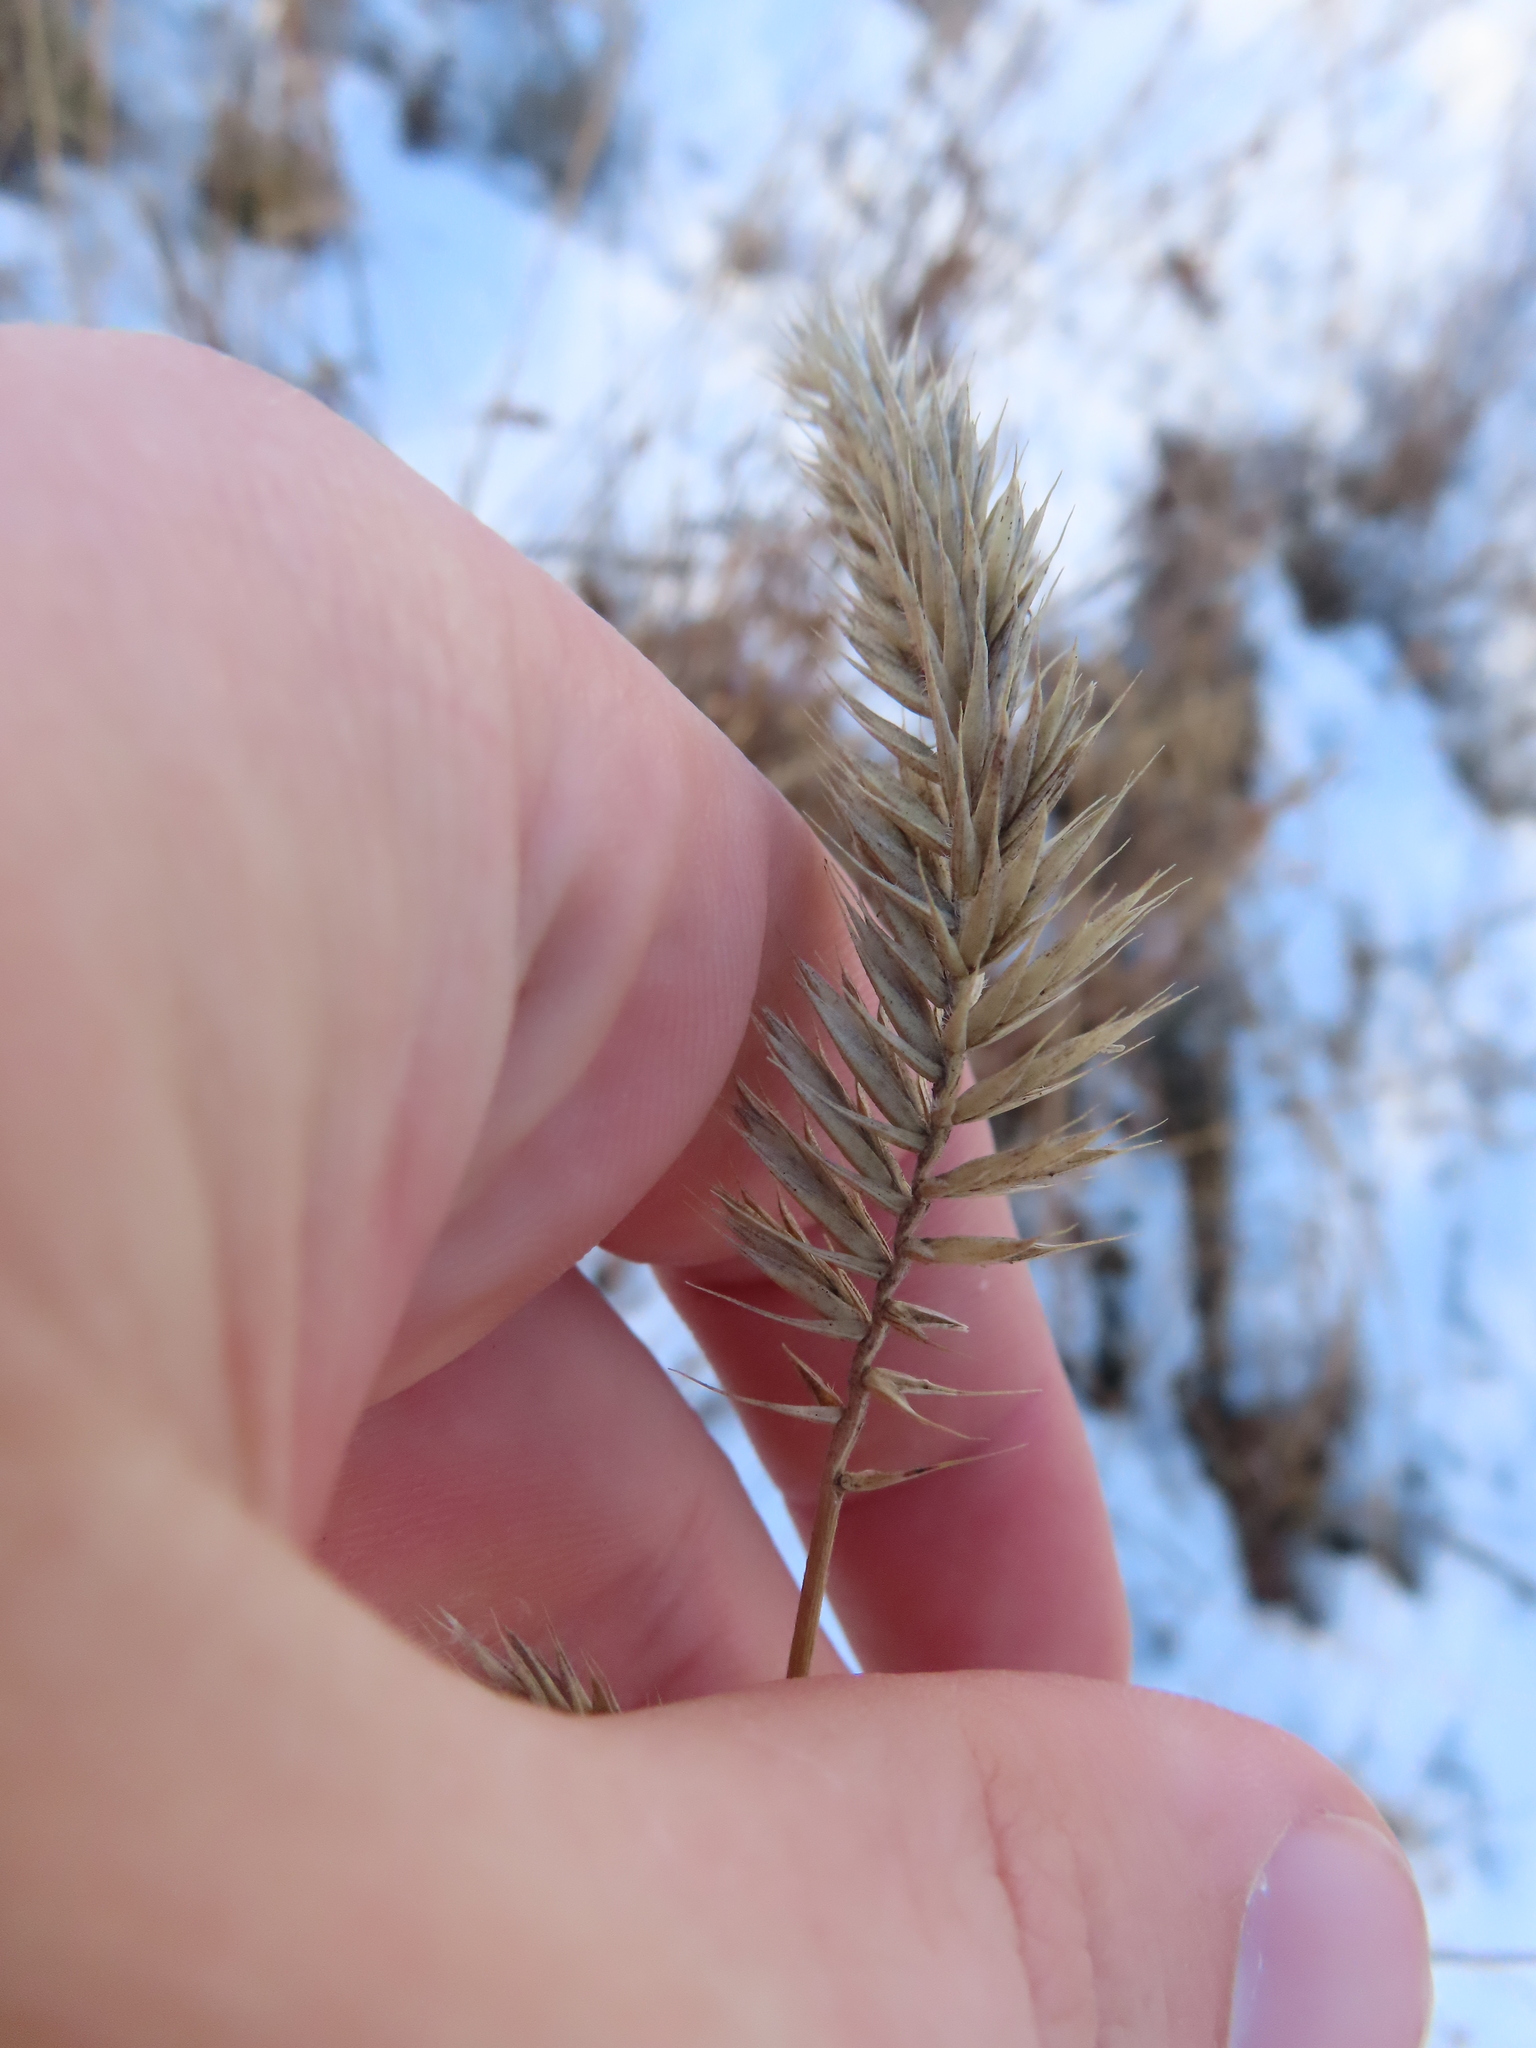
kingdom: Plantae
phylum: Tracheophyta
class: Liliopsida
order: Poales
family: Poaceae
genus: Agropyron
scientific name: Agropyron cristatum
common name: Crested wheatgrass
